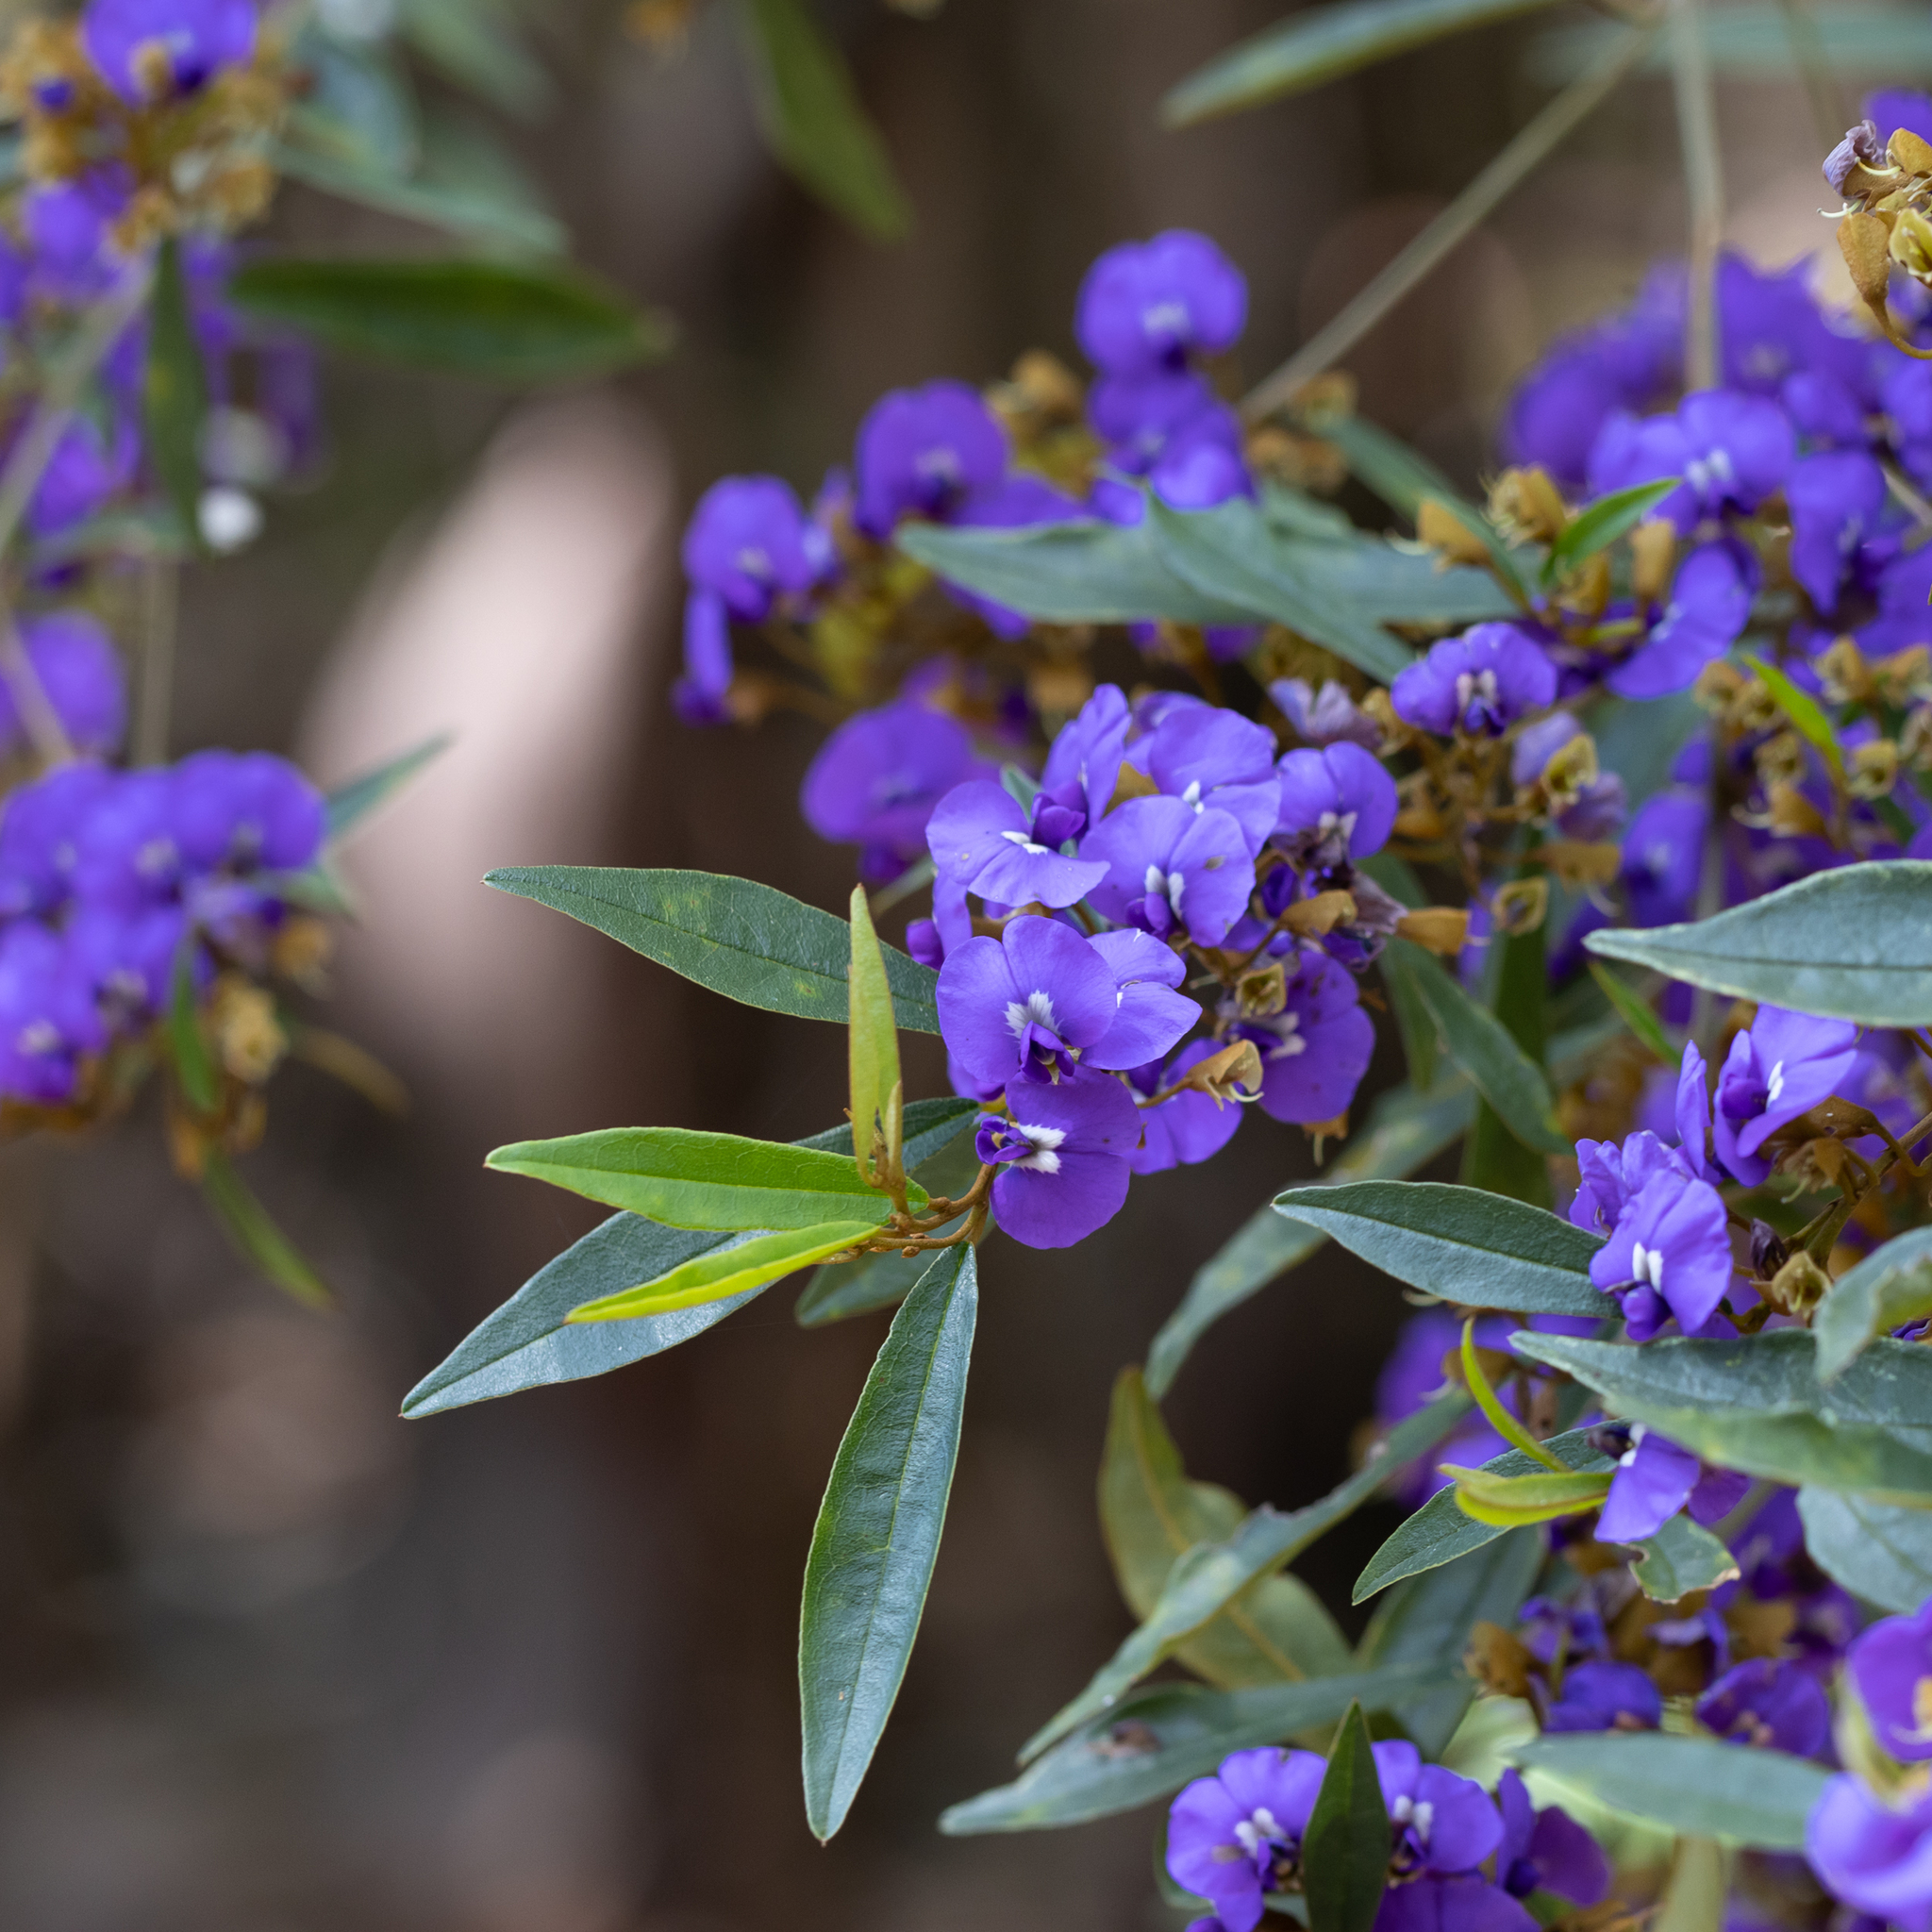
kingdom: Plantae
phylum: Tracheophyta
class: Magnoliopsida
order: Fabales
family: Fabaceae
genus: Hovea
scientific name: Hovea elliptica
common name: Tree hovea
